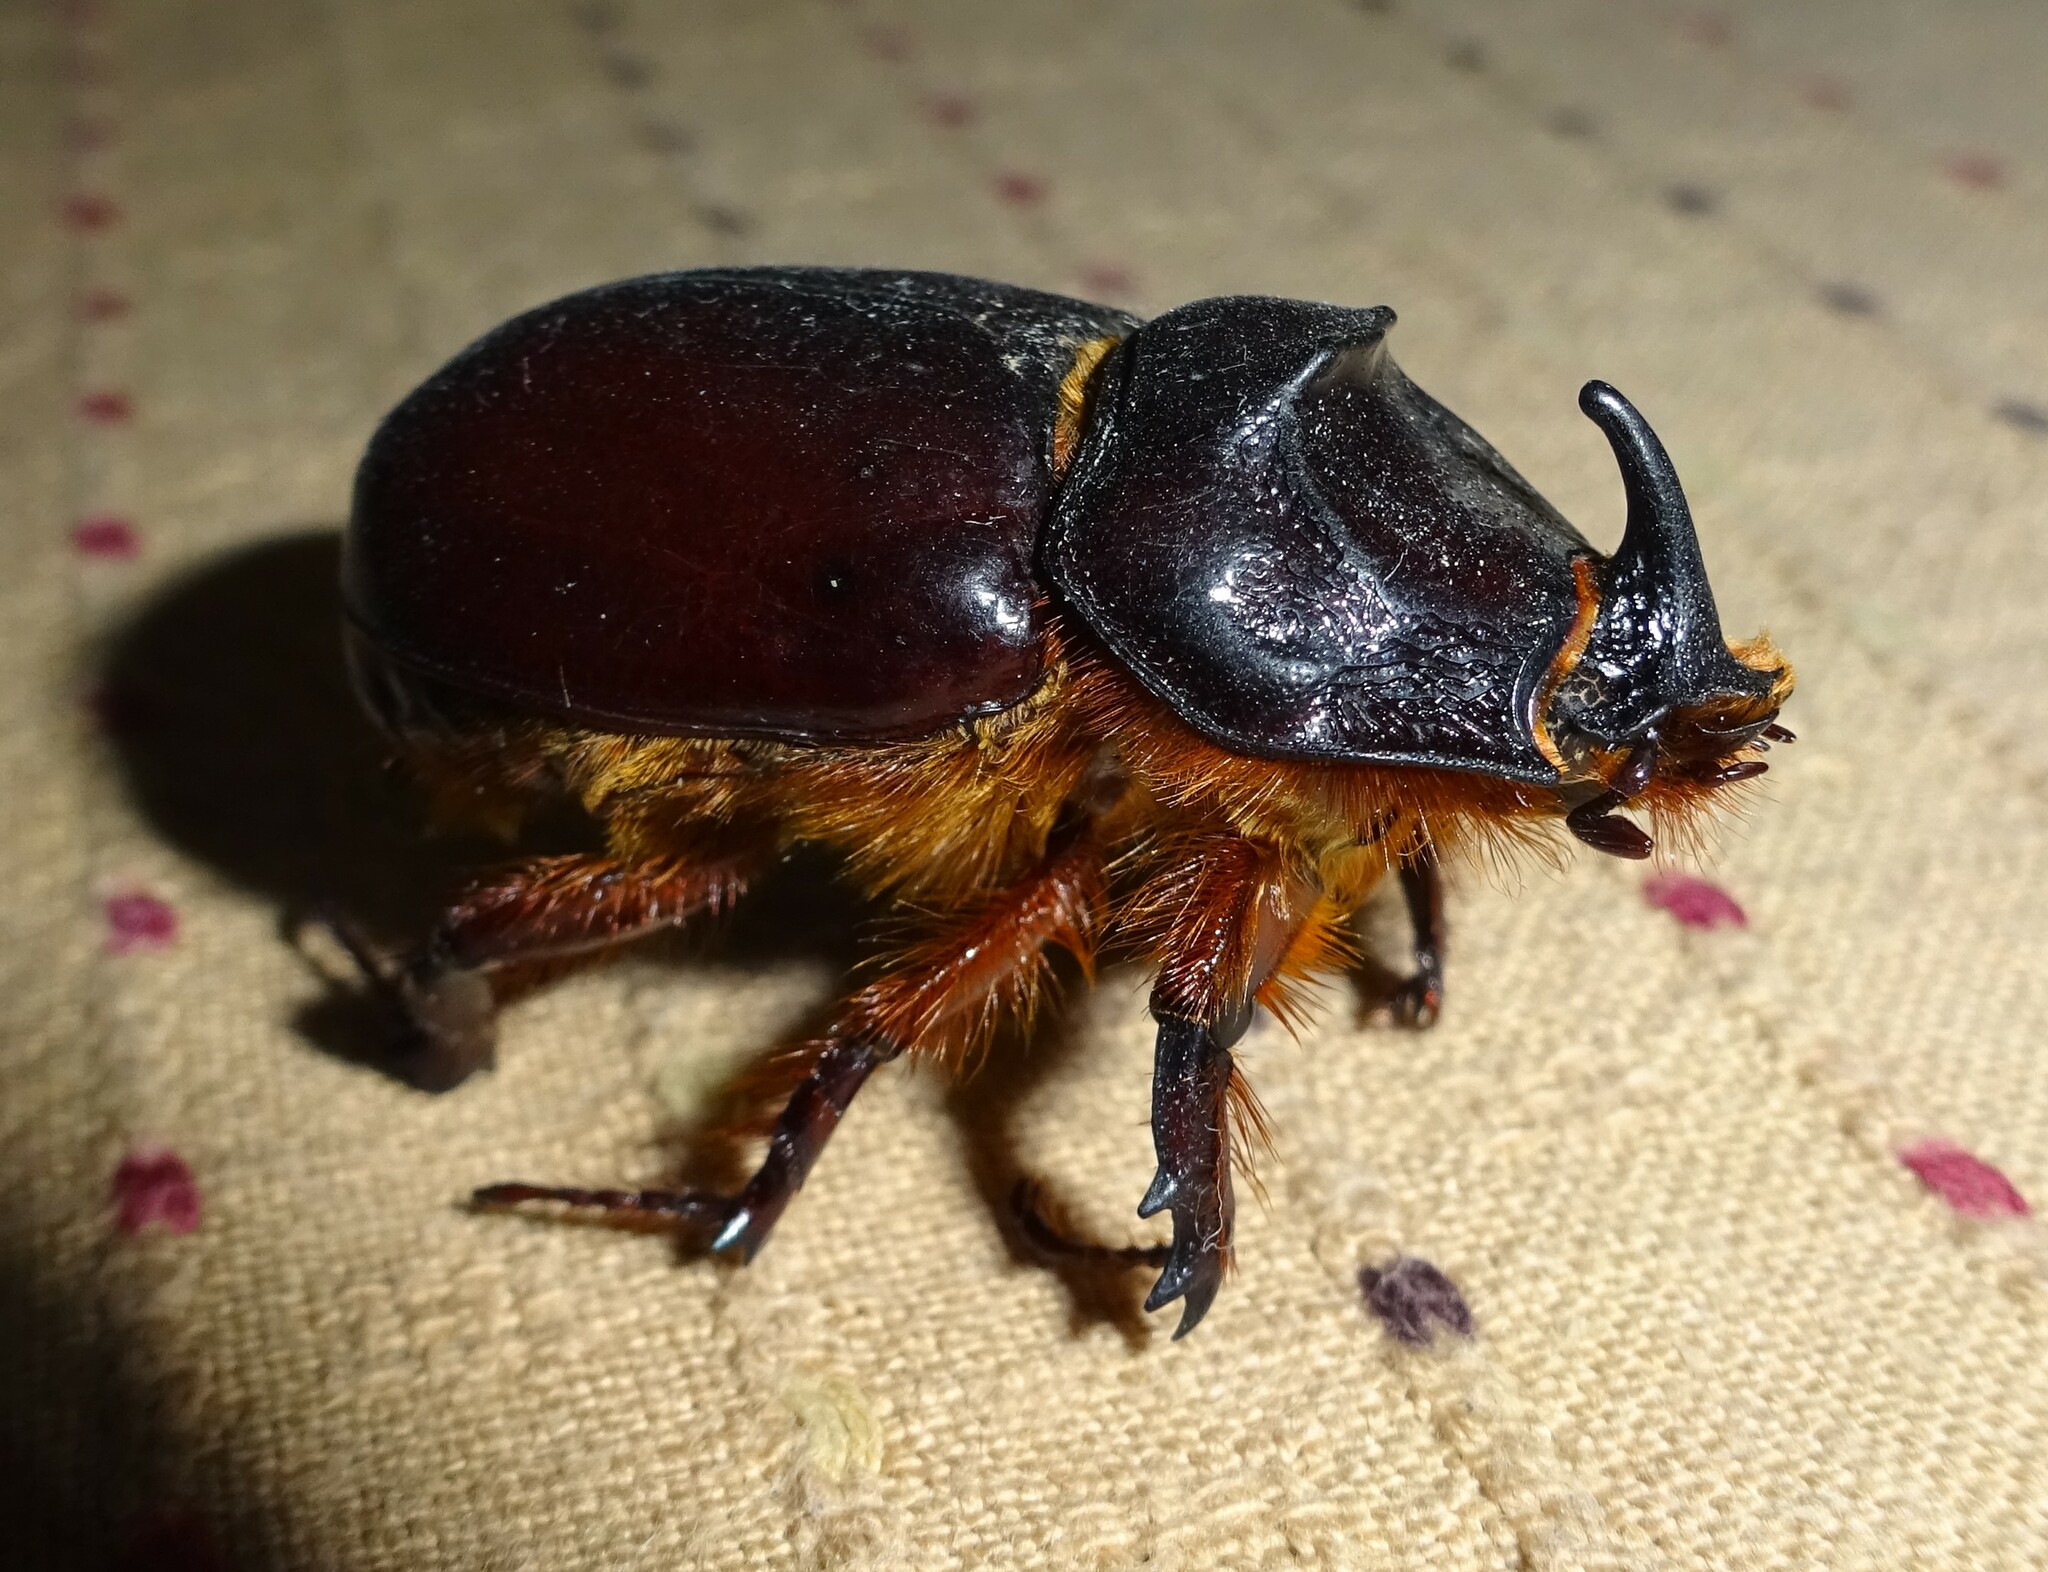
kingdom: Animalia
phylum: Arthropoda
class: Insecta
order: Coleoptera
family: Scarabaeidae
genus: Oryctes
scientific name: Oryctes nasicornis
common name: European rhinoceros beetle
